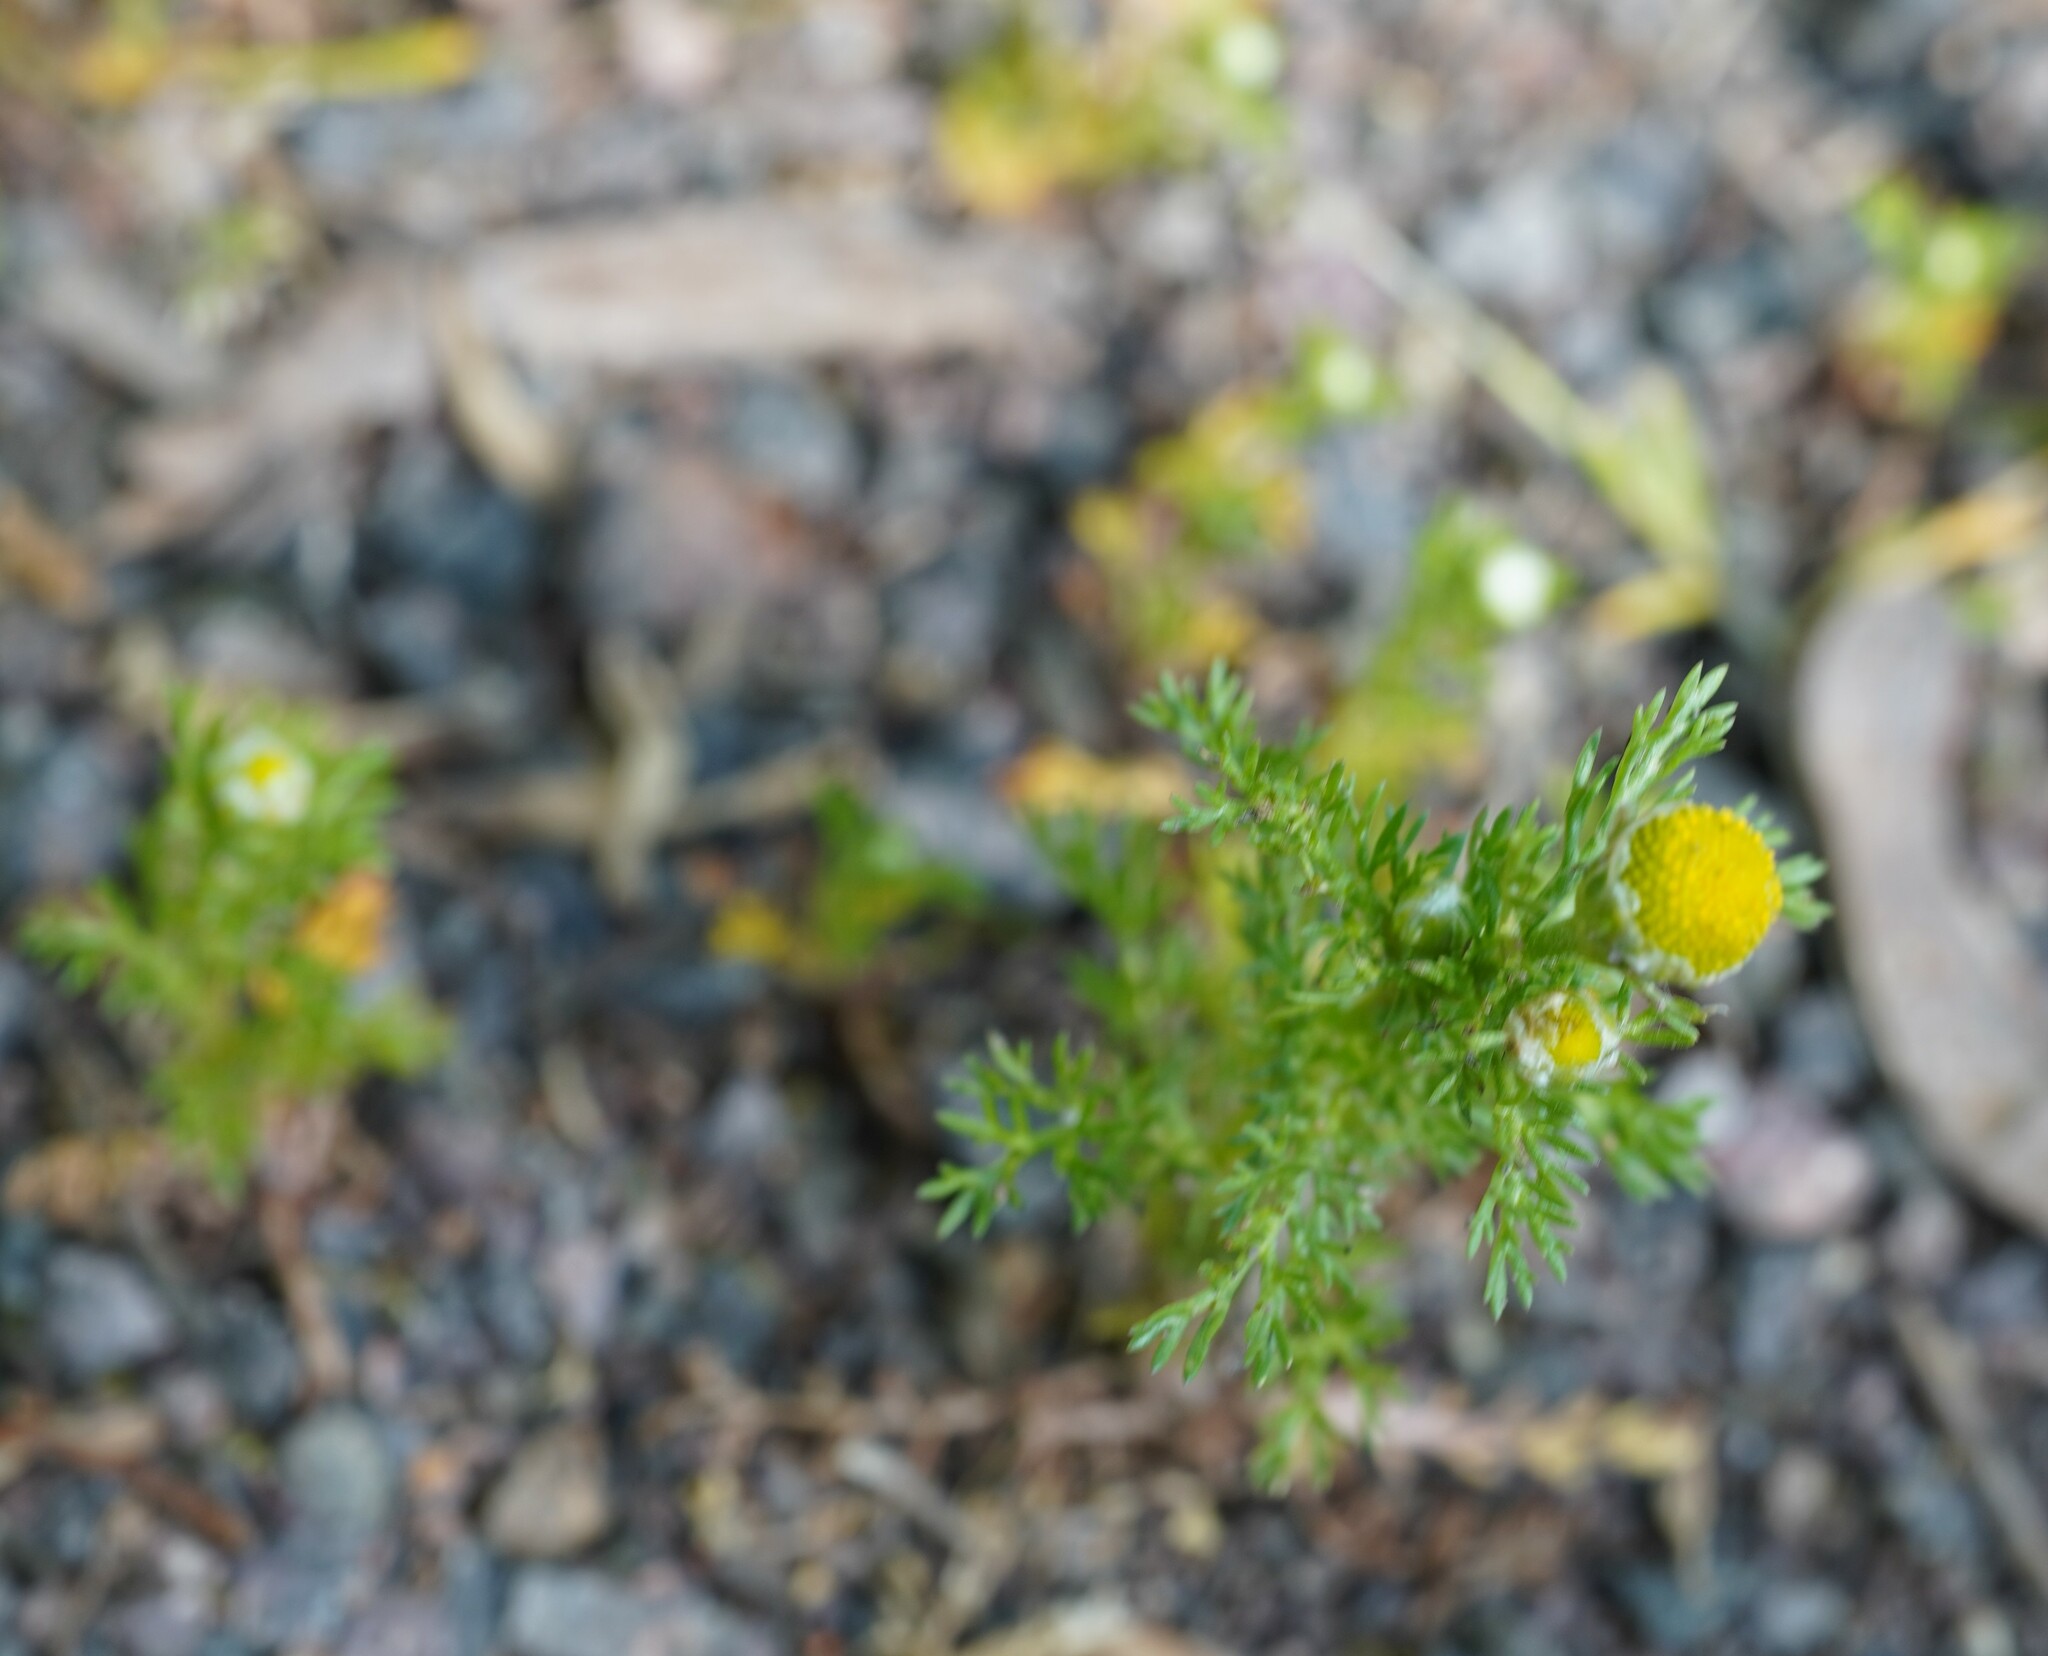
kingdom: Plantae
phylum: Tracheophyta
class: Magnoliopsida
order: Asterales
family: Asteraceae
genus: Matricaria
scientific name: Matricaria discoidea
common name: Disc mayweed
